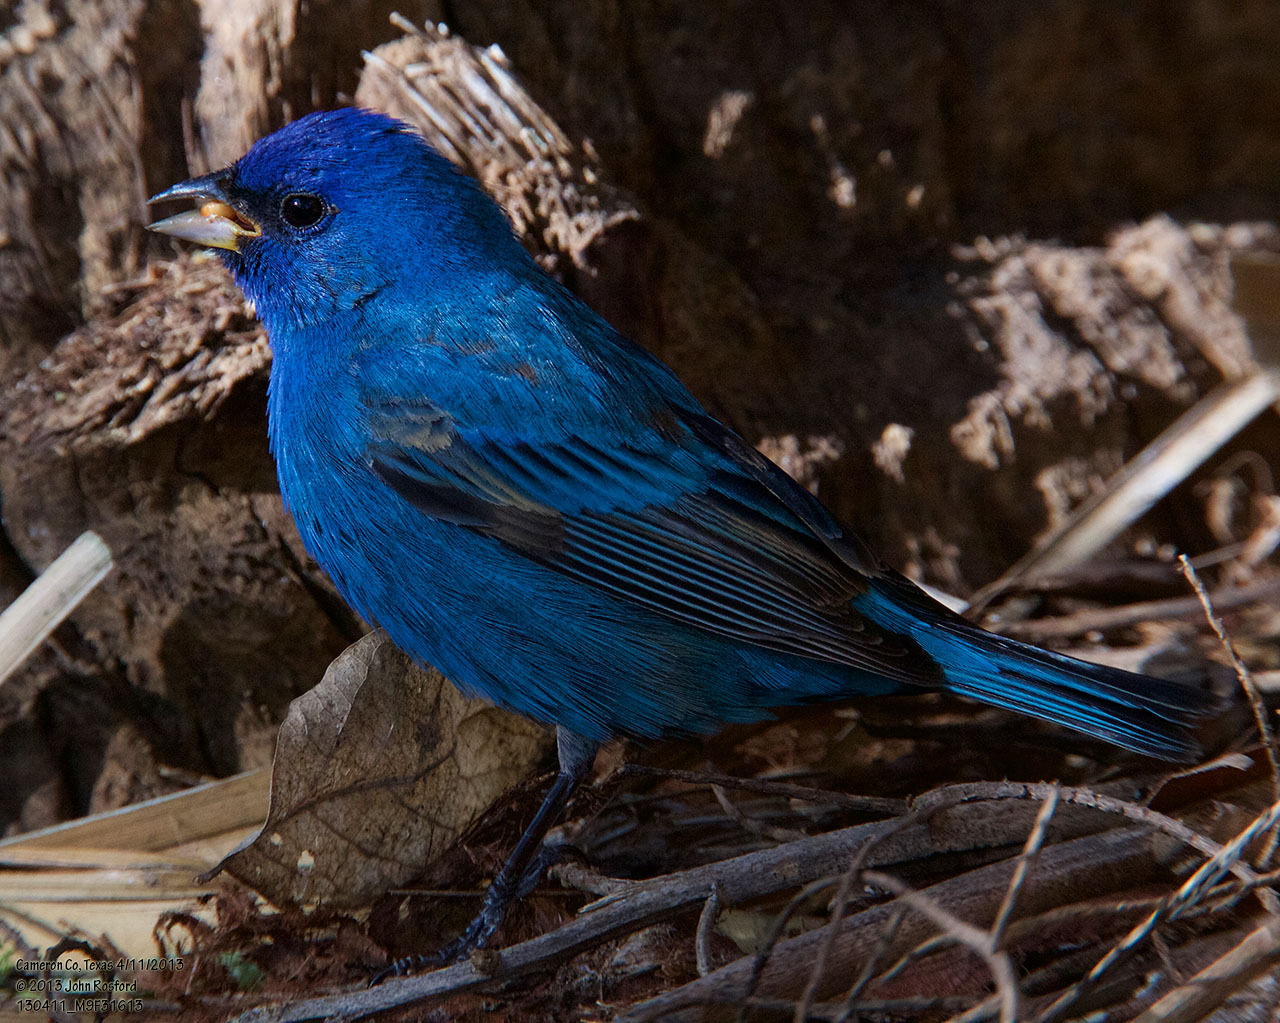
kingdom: Animalia
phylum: Chordata
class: Aves
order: Passeriformes
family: Cardinalidae
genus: Passerina
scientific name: Passerina cyanea
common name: Indigo bunting
